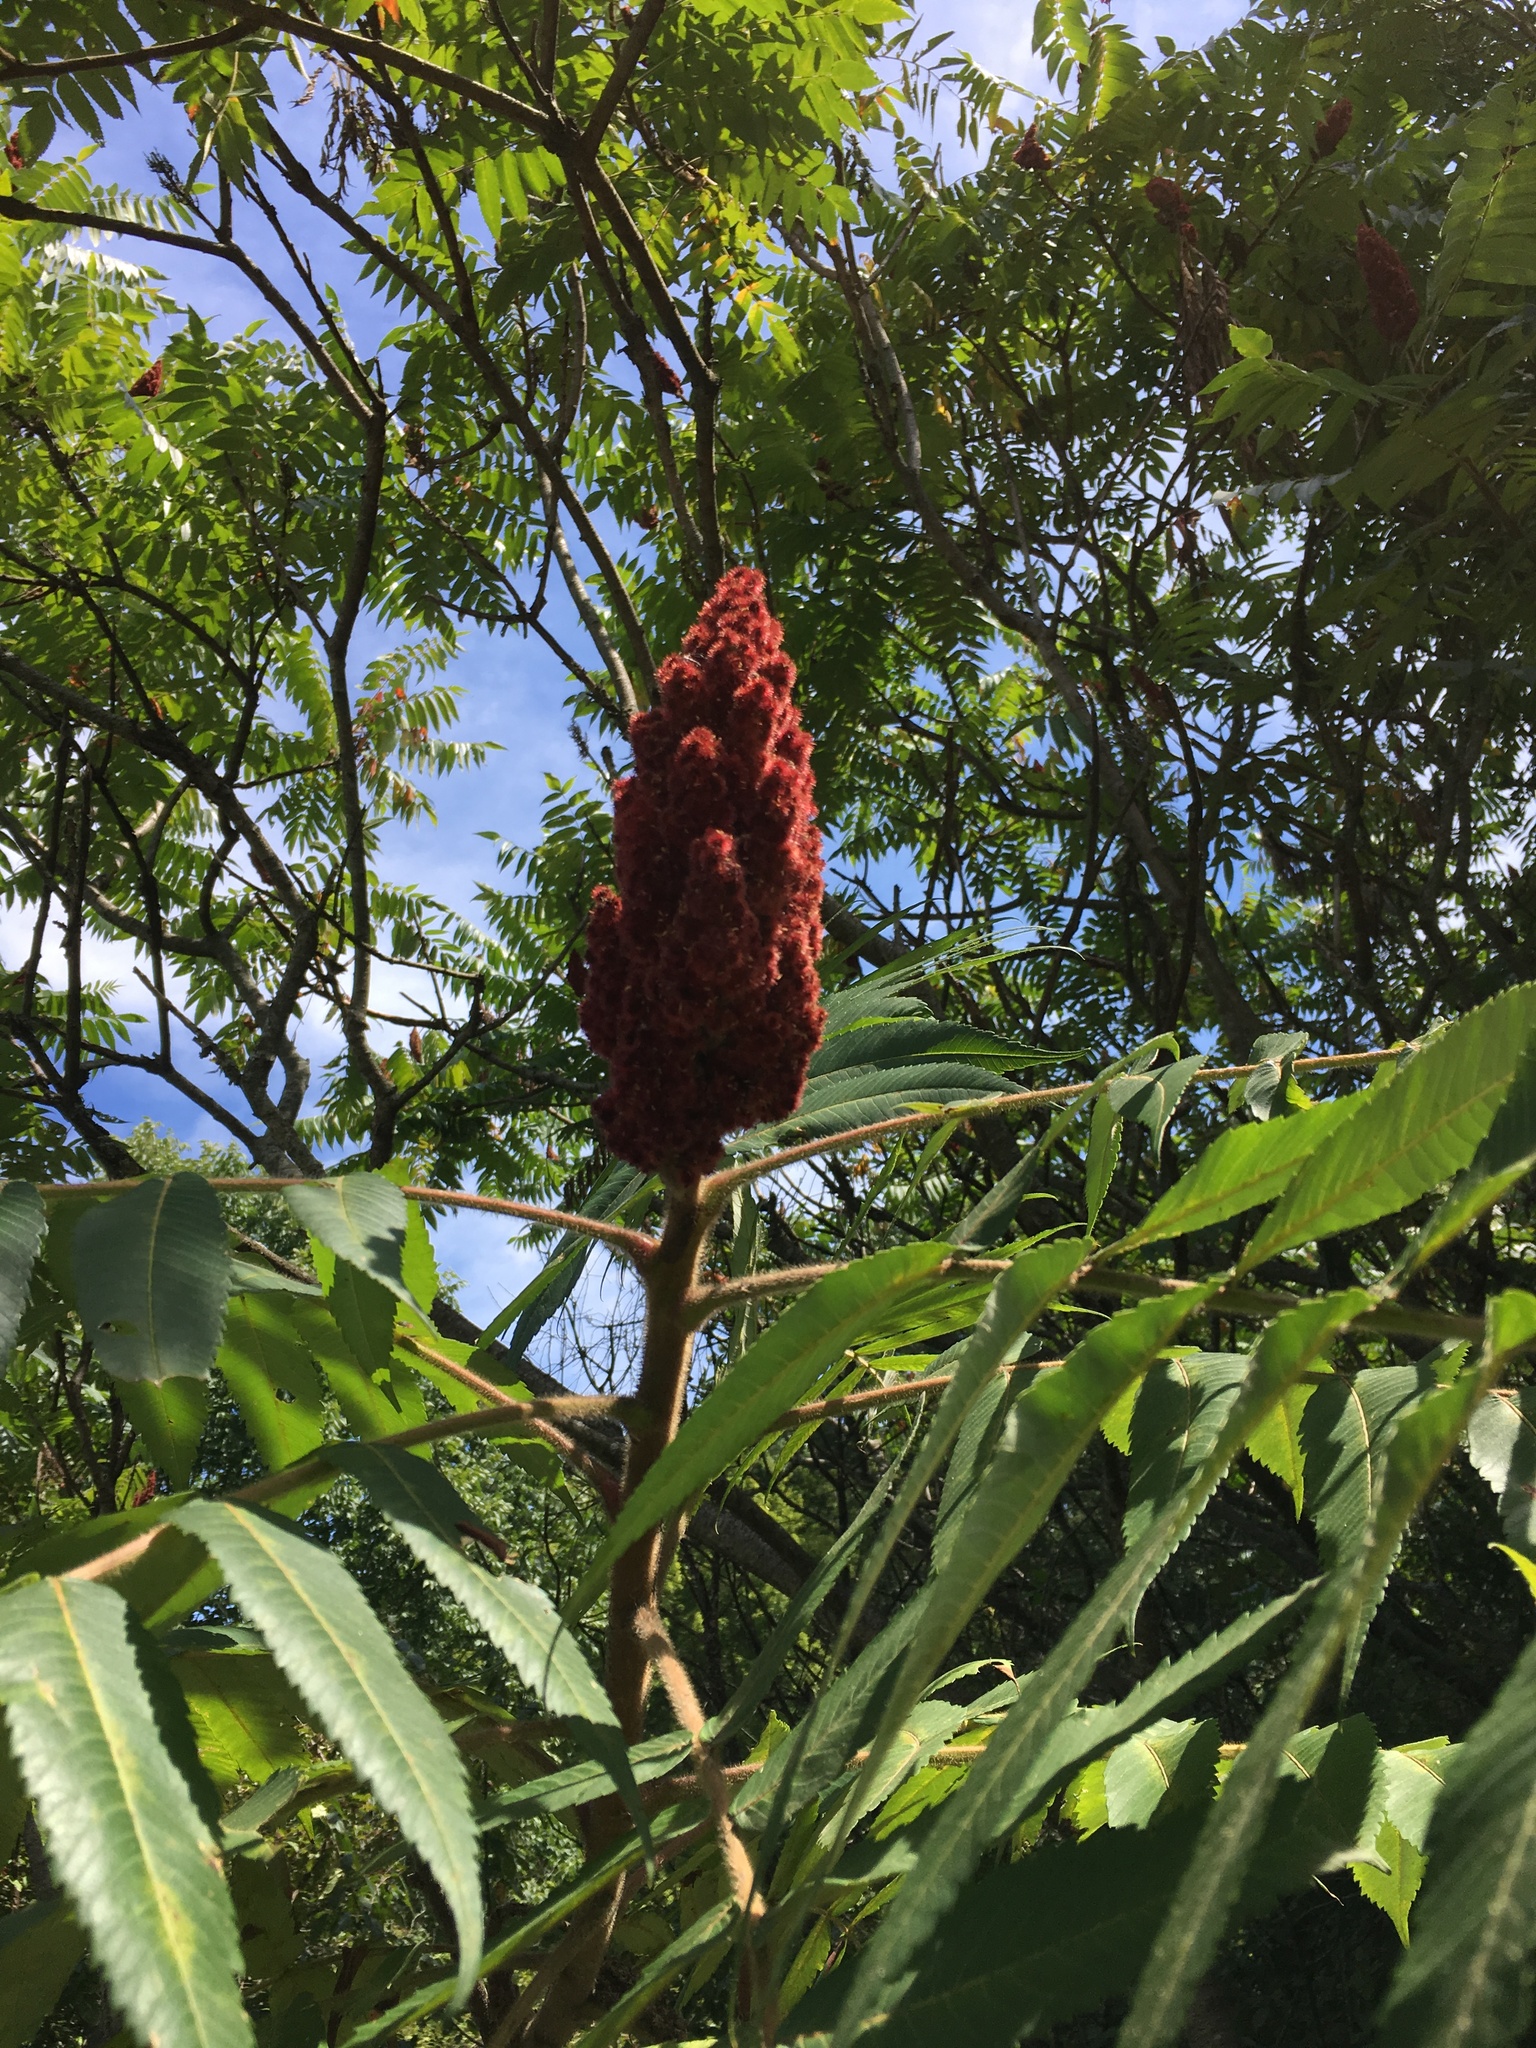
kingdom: Plantae
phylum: Tracheophyta
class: Magnoliopsida
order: Sapindales
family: Anacardiaceae
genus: Rhus
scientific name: Rhus typhina
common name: Staghorn sumac
